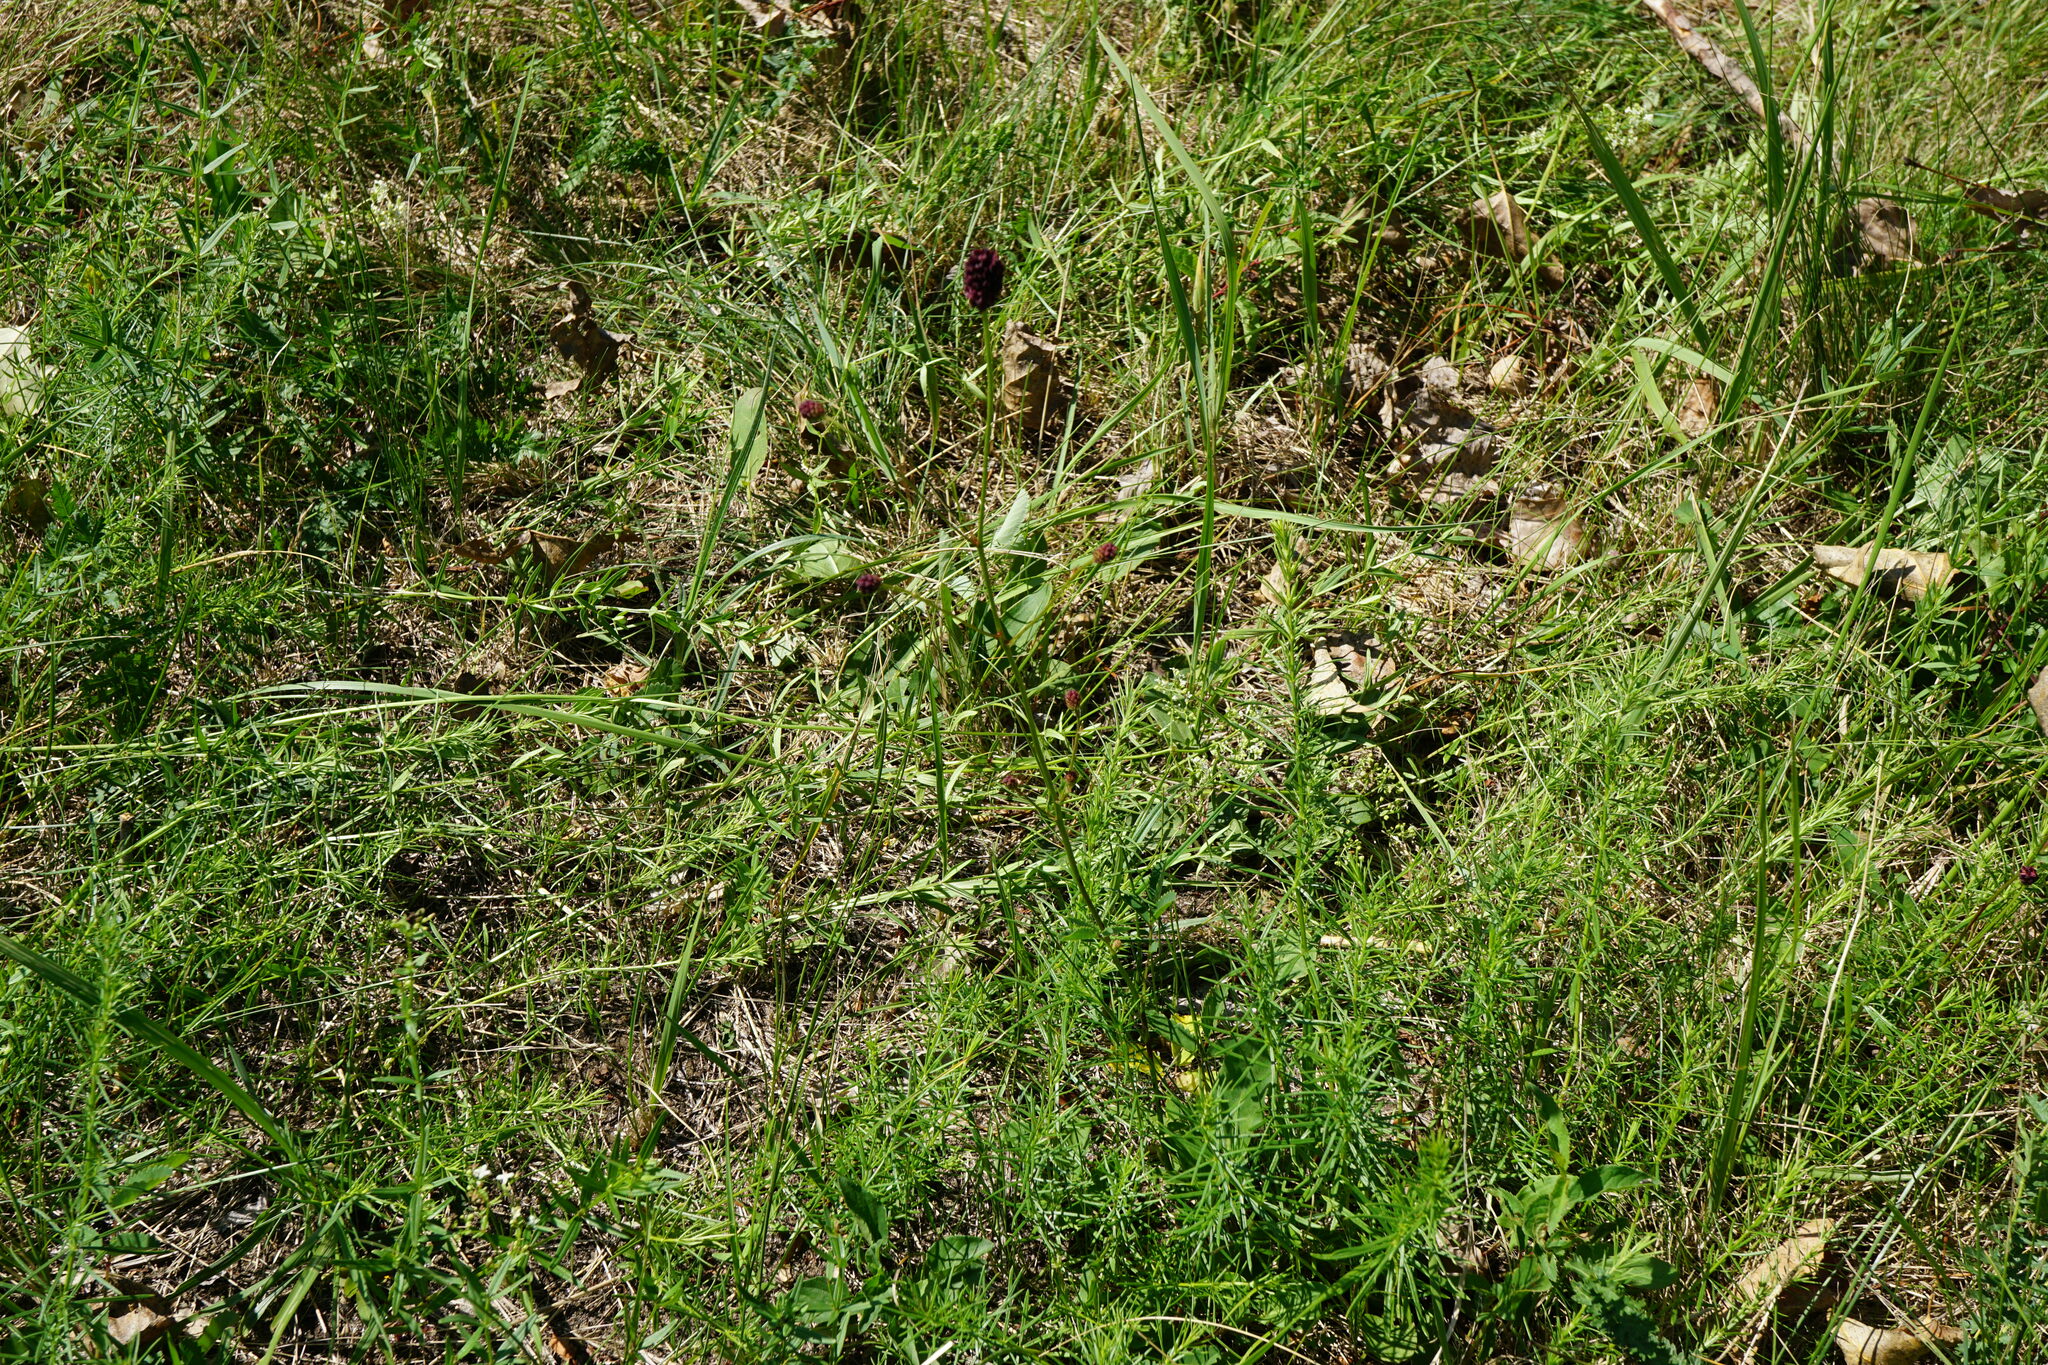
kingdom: Plantae
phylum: Tracheophyta
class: Magnoliopsida
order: Rosales
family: Rosaceae
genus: Sanguisorba
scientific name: Sanguisorba officinalis
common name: Great burnet
